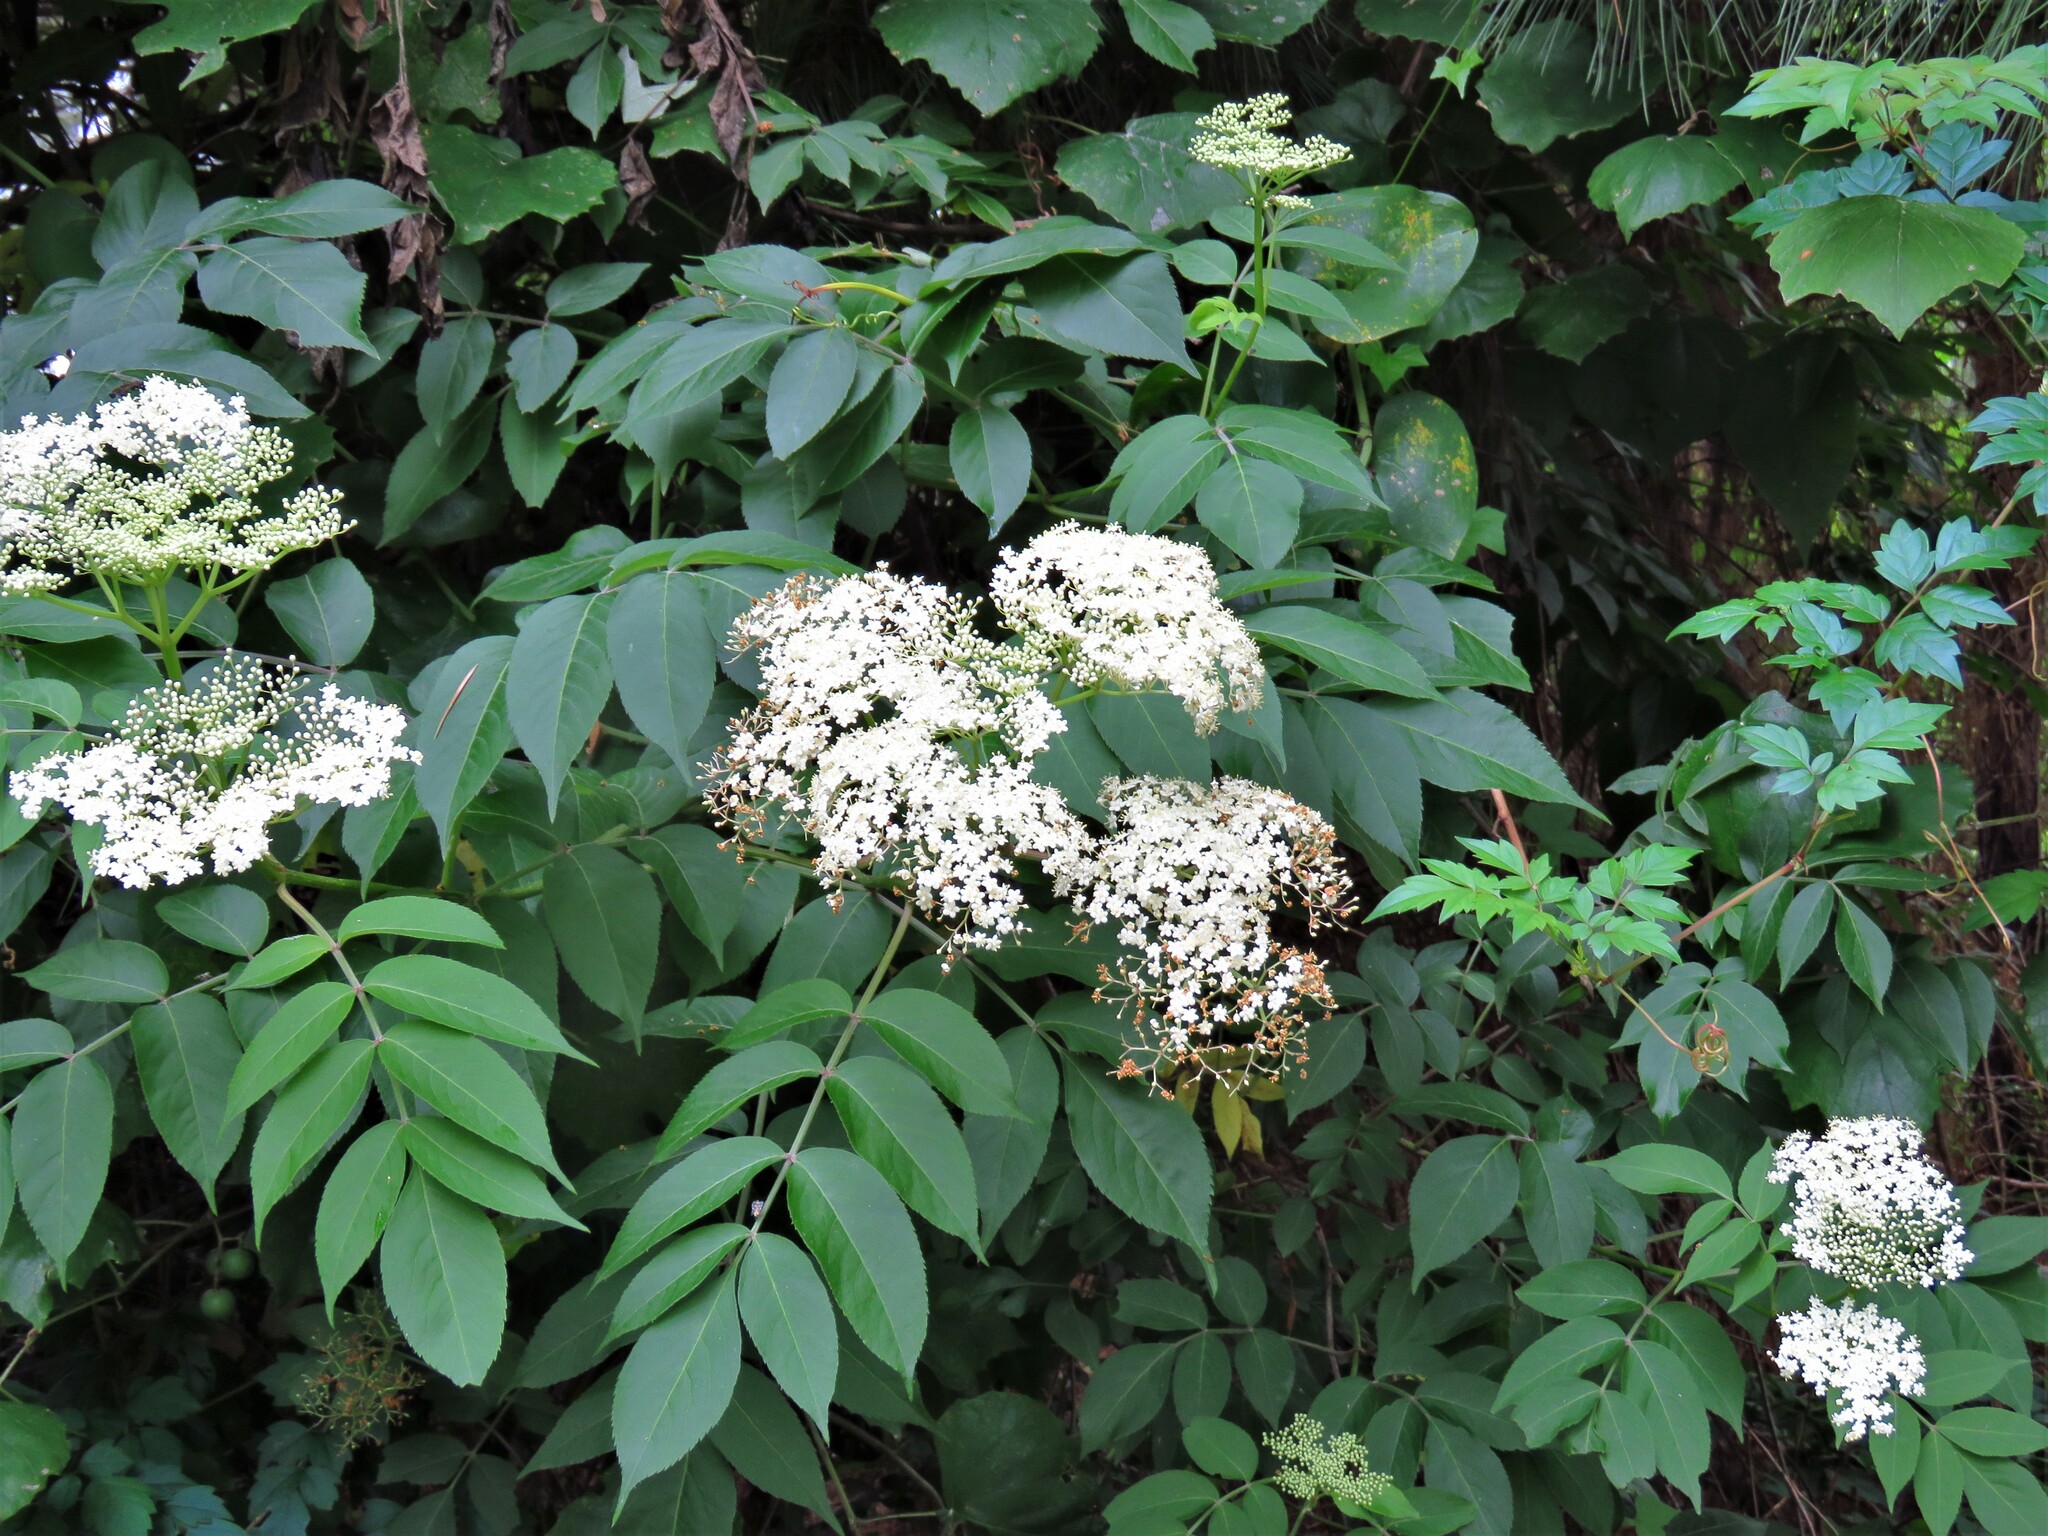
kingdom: Plantae
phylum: Tracheophyta
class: Magnoliopsida
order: Dipsacales
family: Viburnaceae
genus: Sambucus
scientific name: Sambucus canadensis
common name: American elder
